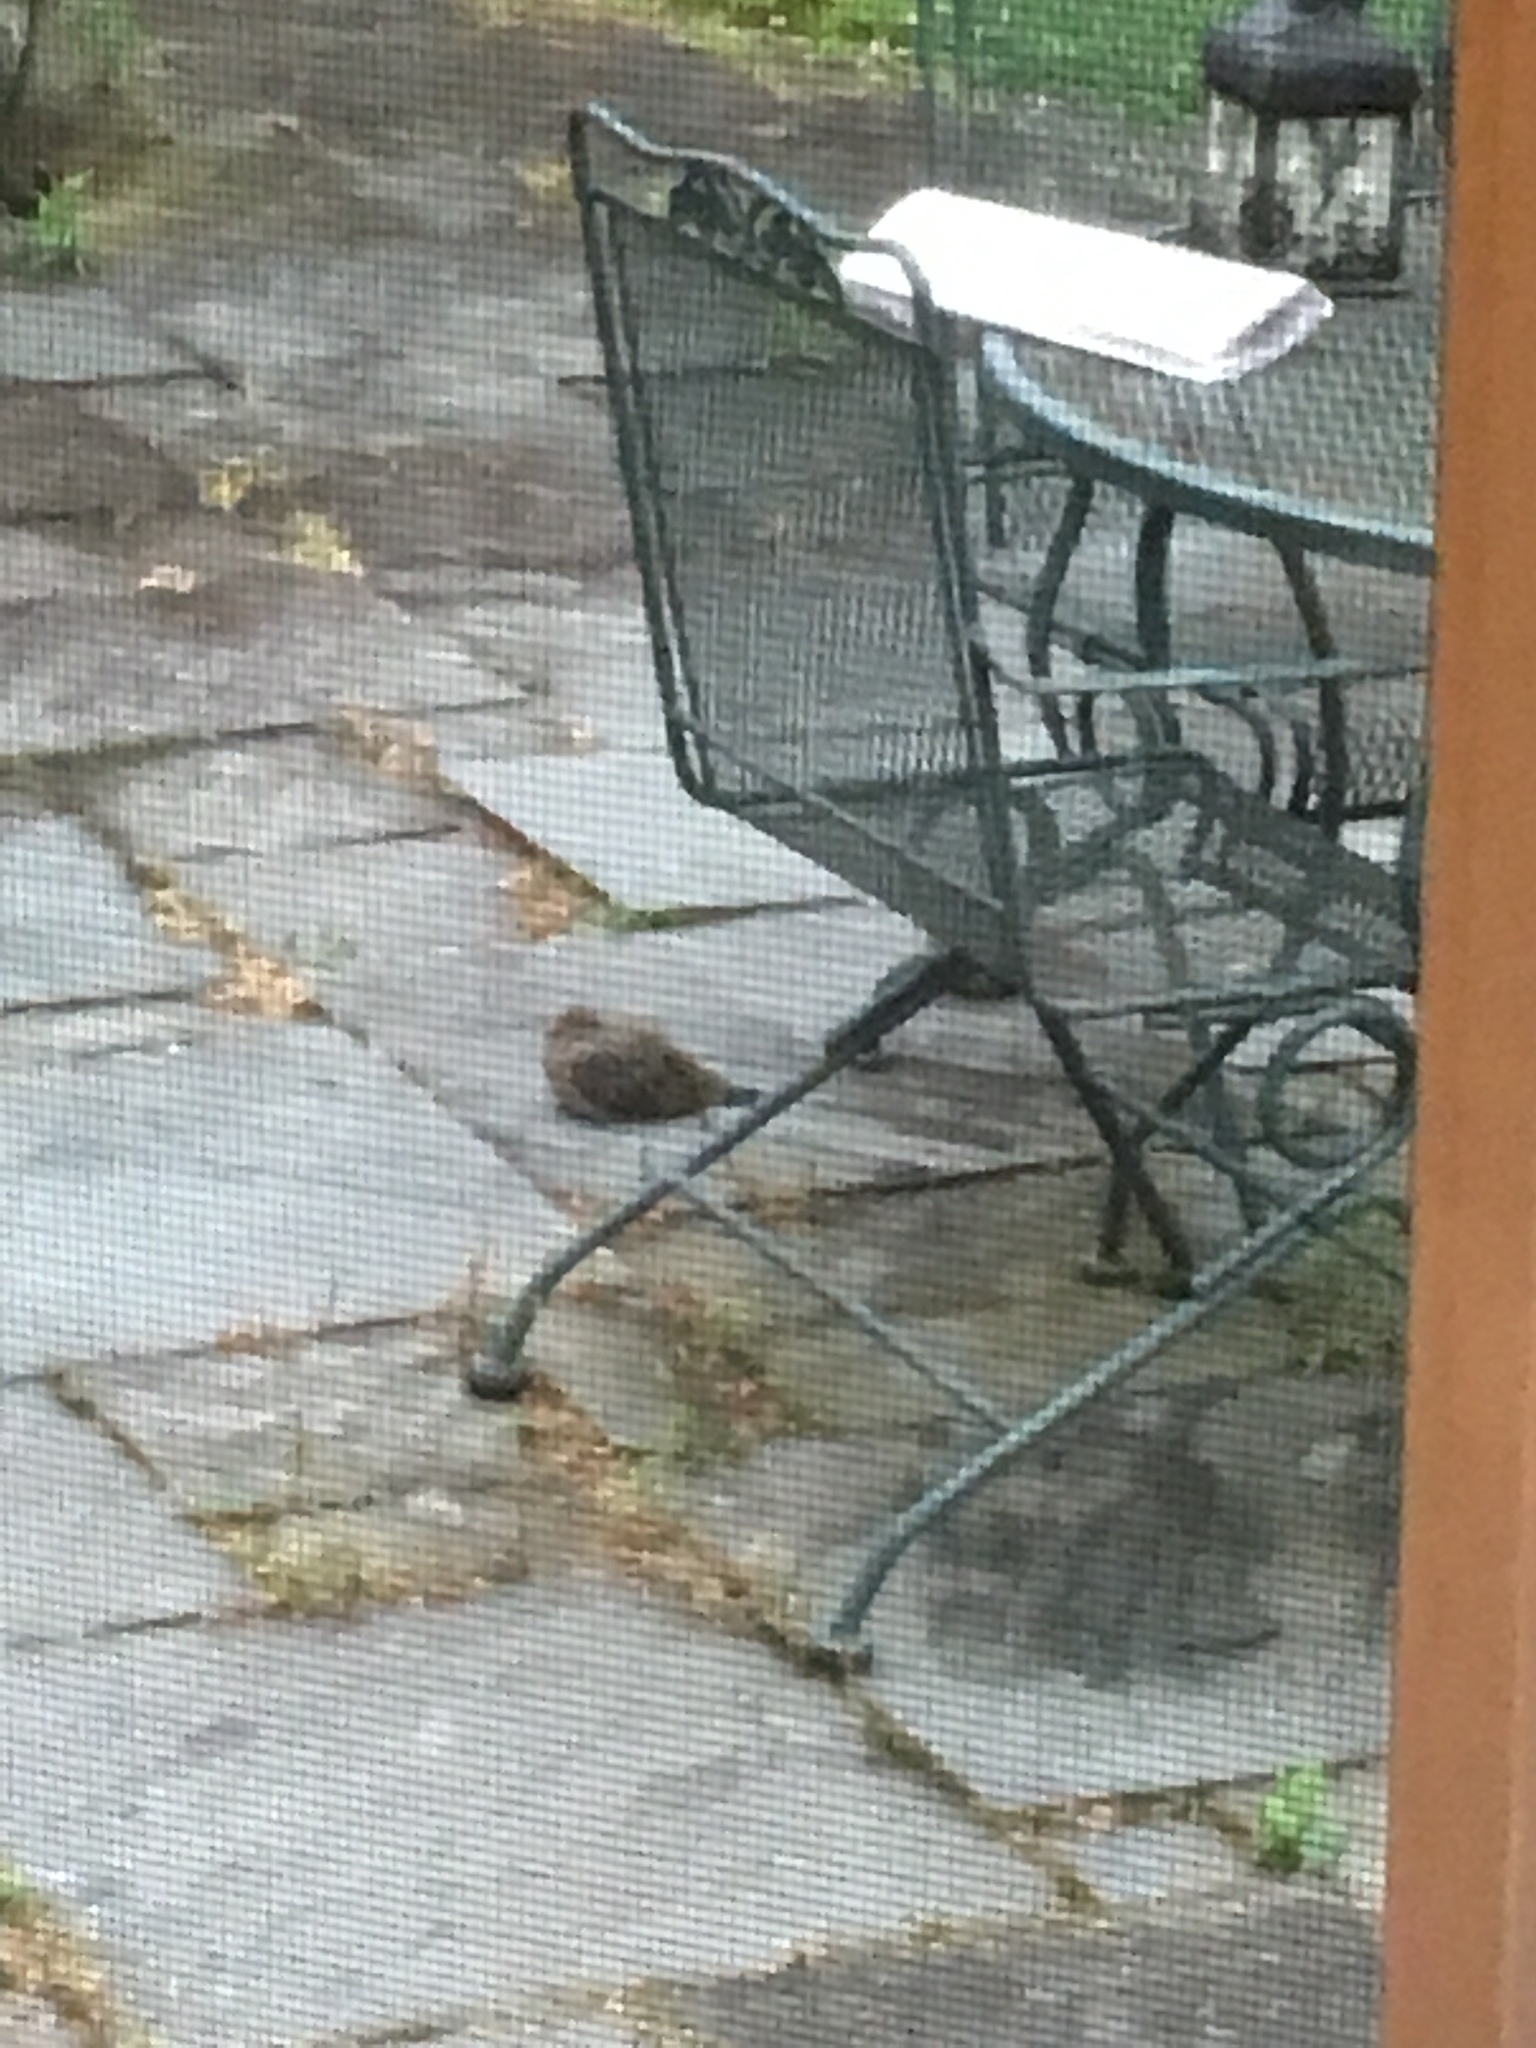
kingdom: Animalia
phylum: Chordata
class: Aves
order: Columbiformes
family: Columbidae
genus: Zenaida
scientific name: Zenaida macroura
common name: Mourning dove
